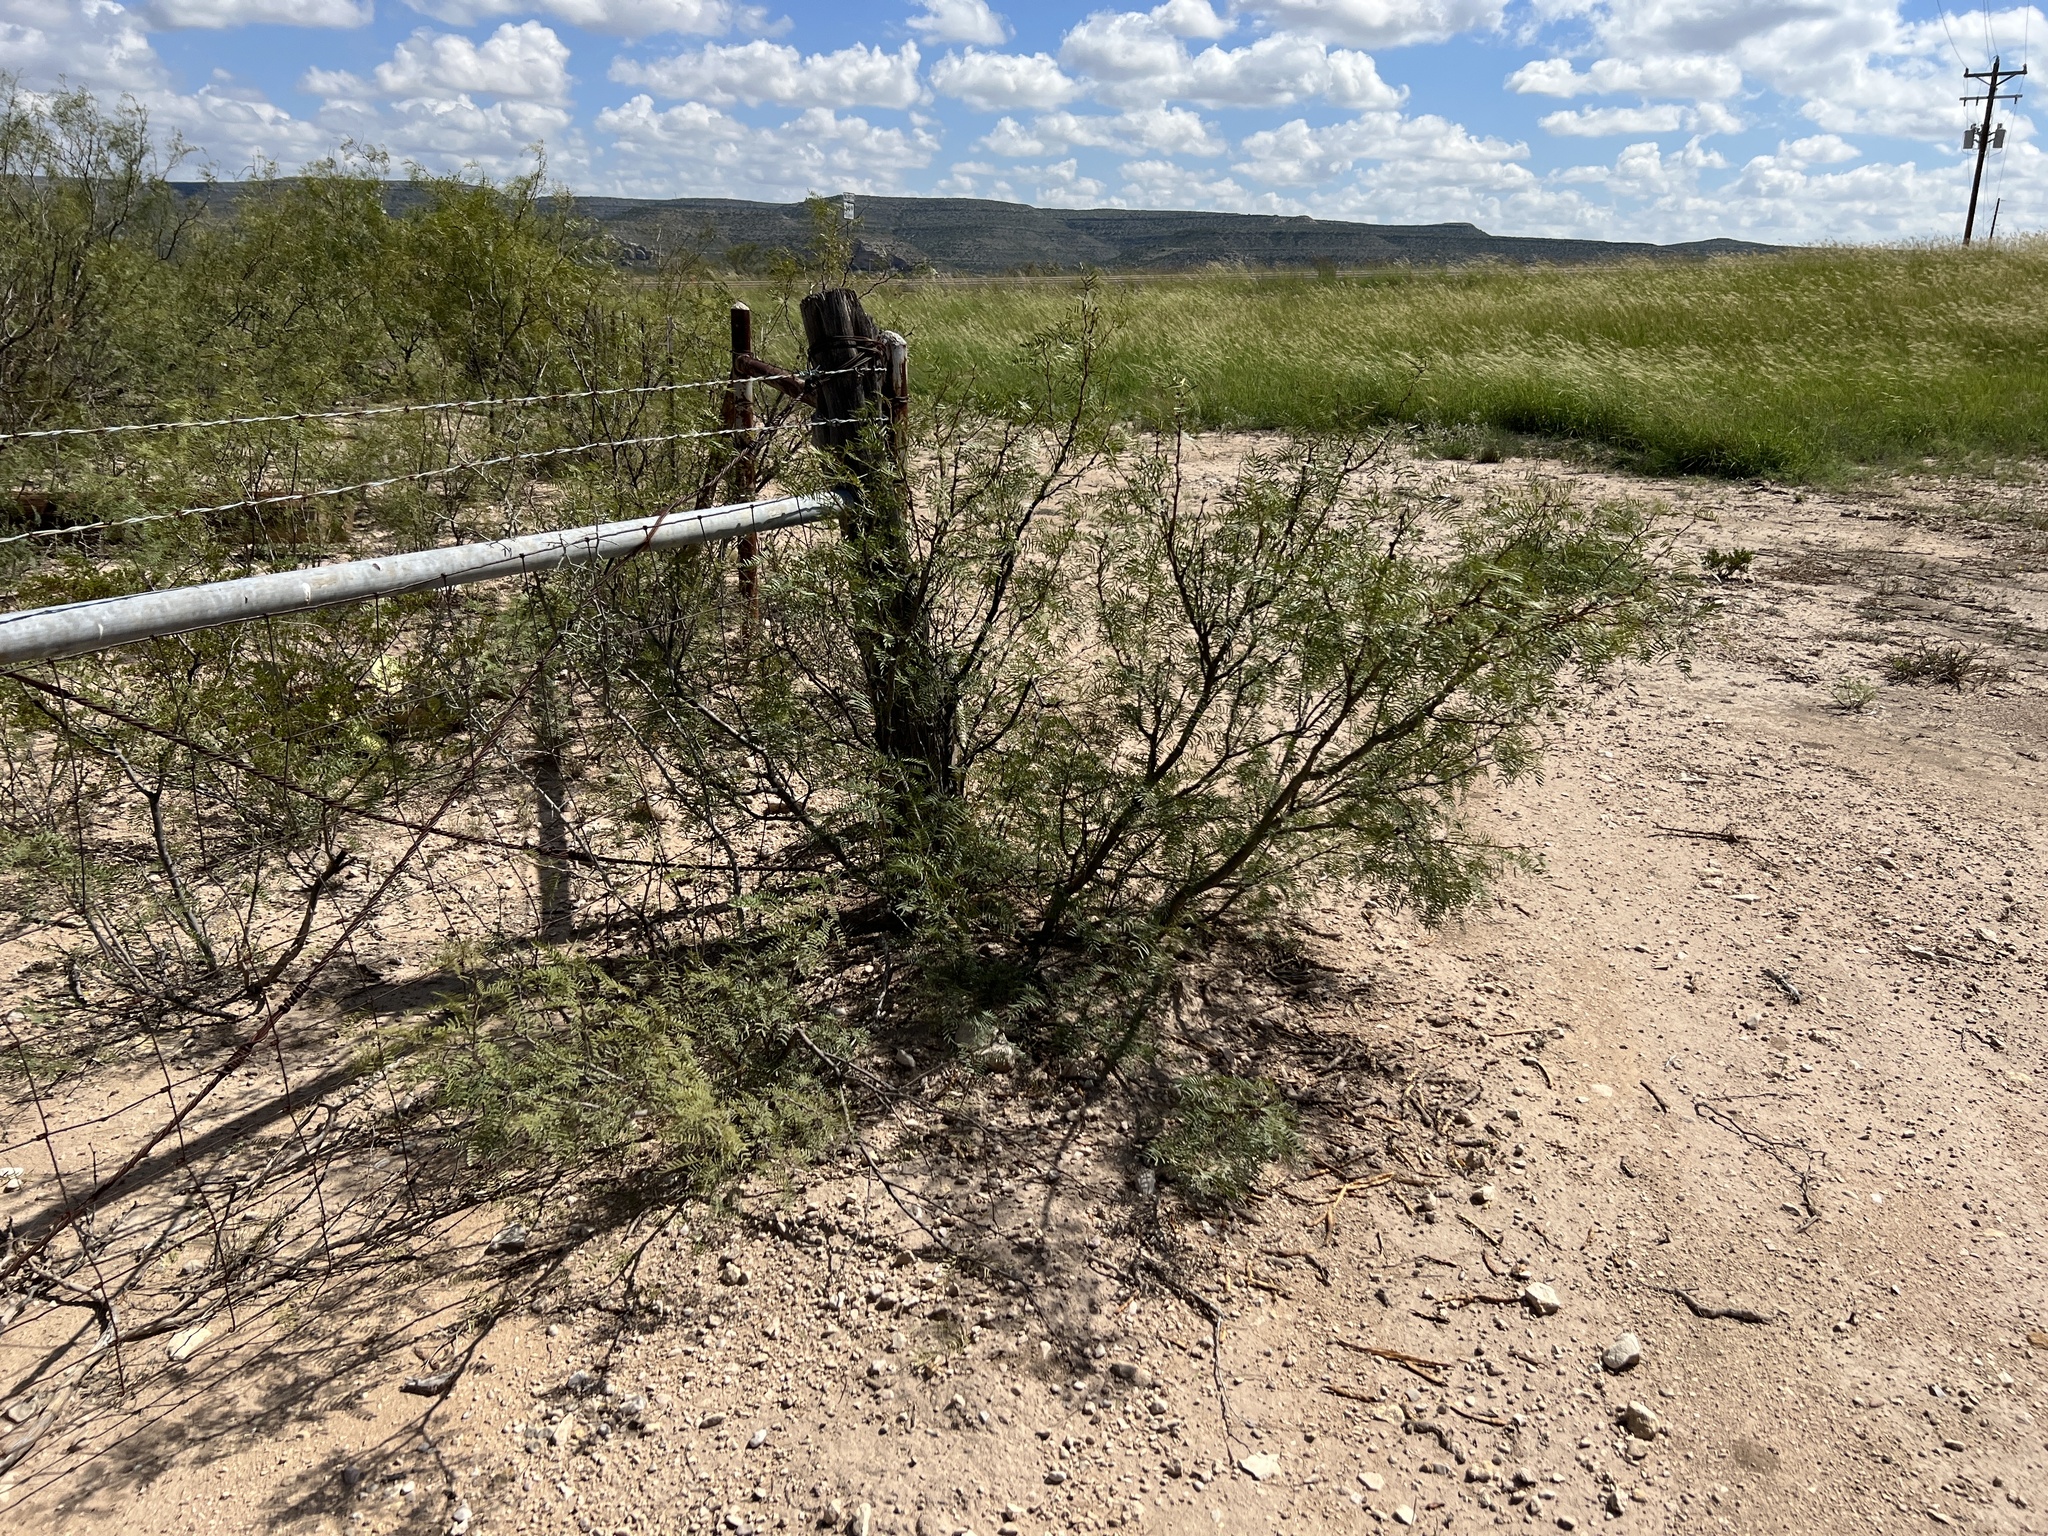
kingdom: Plantae
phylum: Tracheophyta
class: Magnoliopsida
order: Fabales
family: Fabaceae
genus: Prosopis
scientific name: Prosopis glandulosa
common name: Honey mesquite
